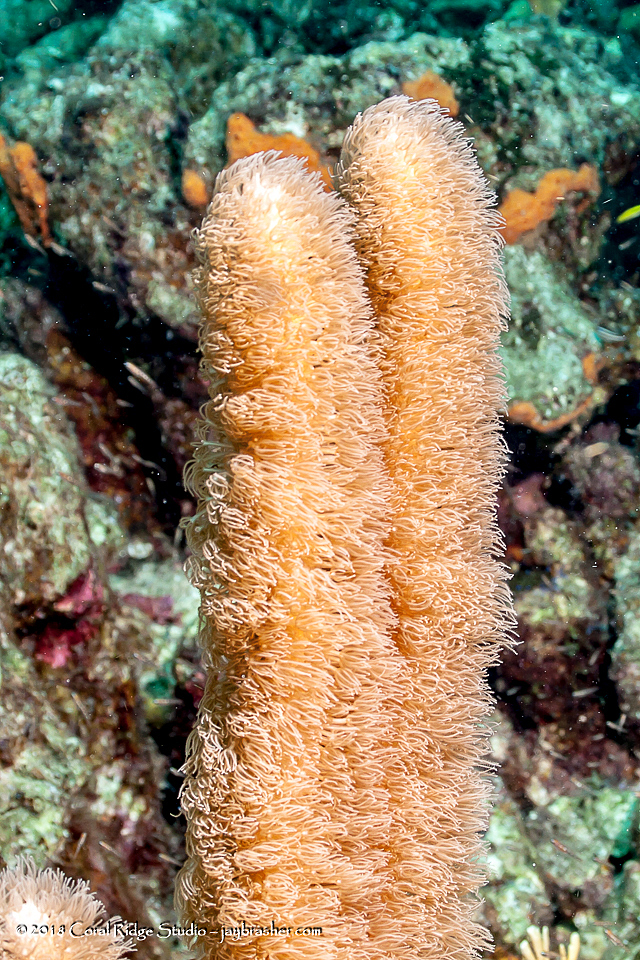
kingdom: Animalia
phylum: Cnidaria
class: Anthozoa
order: Scleralcyonacea
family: Briareidae
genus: Briareum
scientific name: Briareum asbestinum
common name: Corky sea finger
